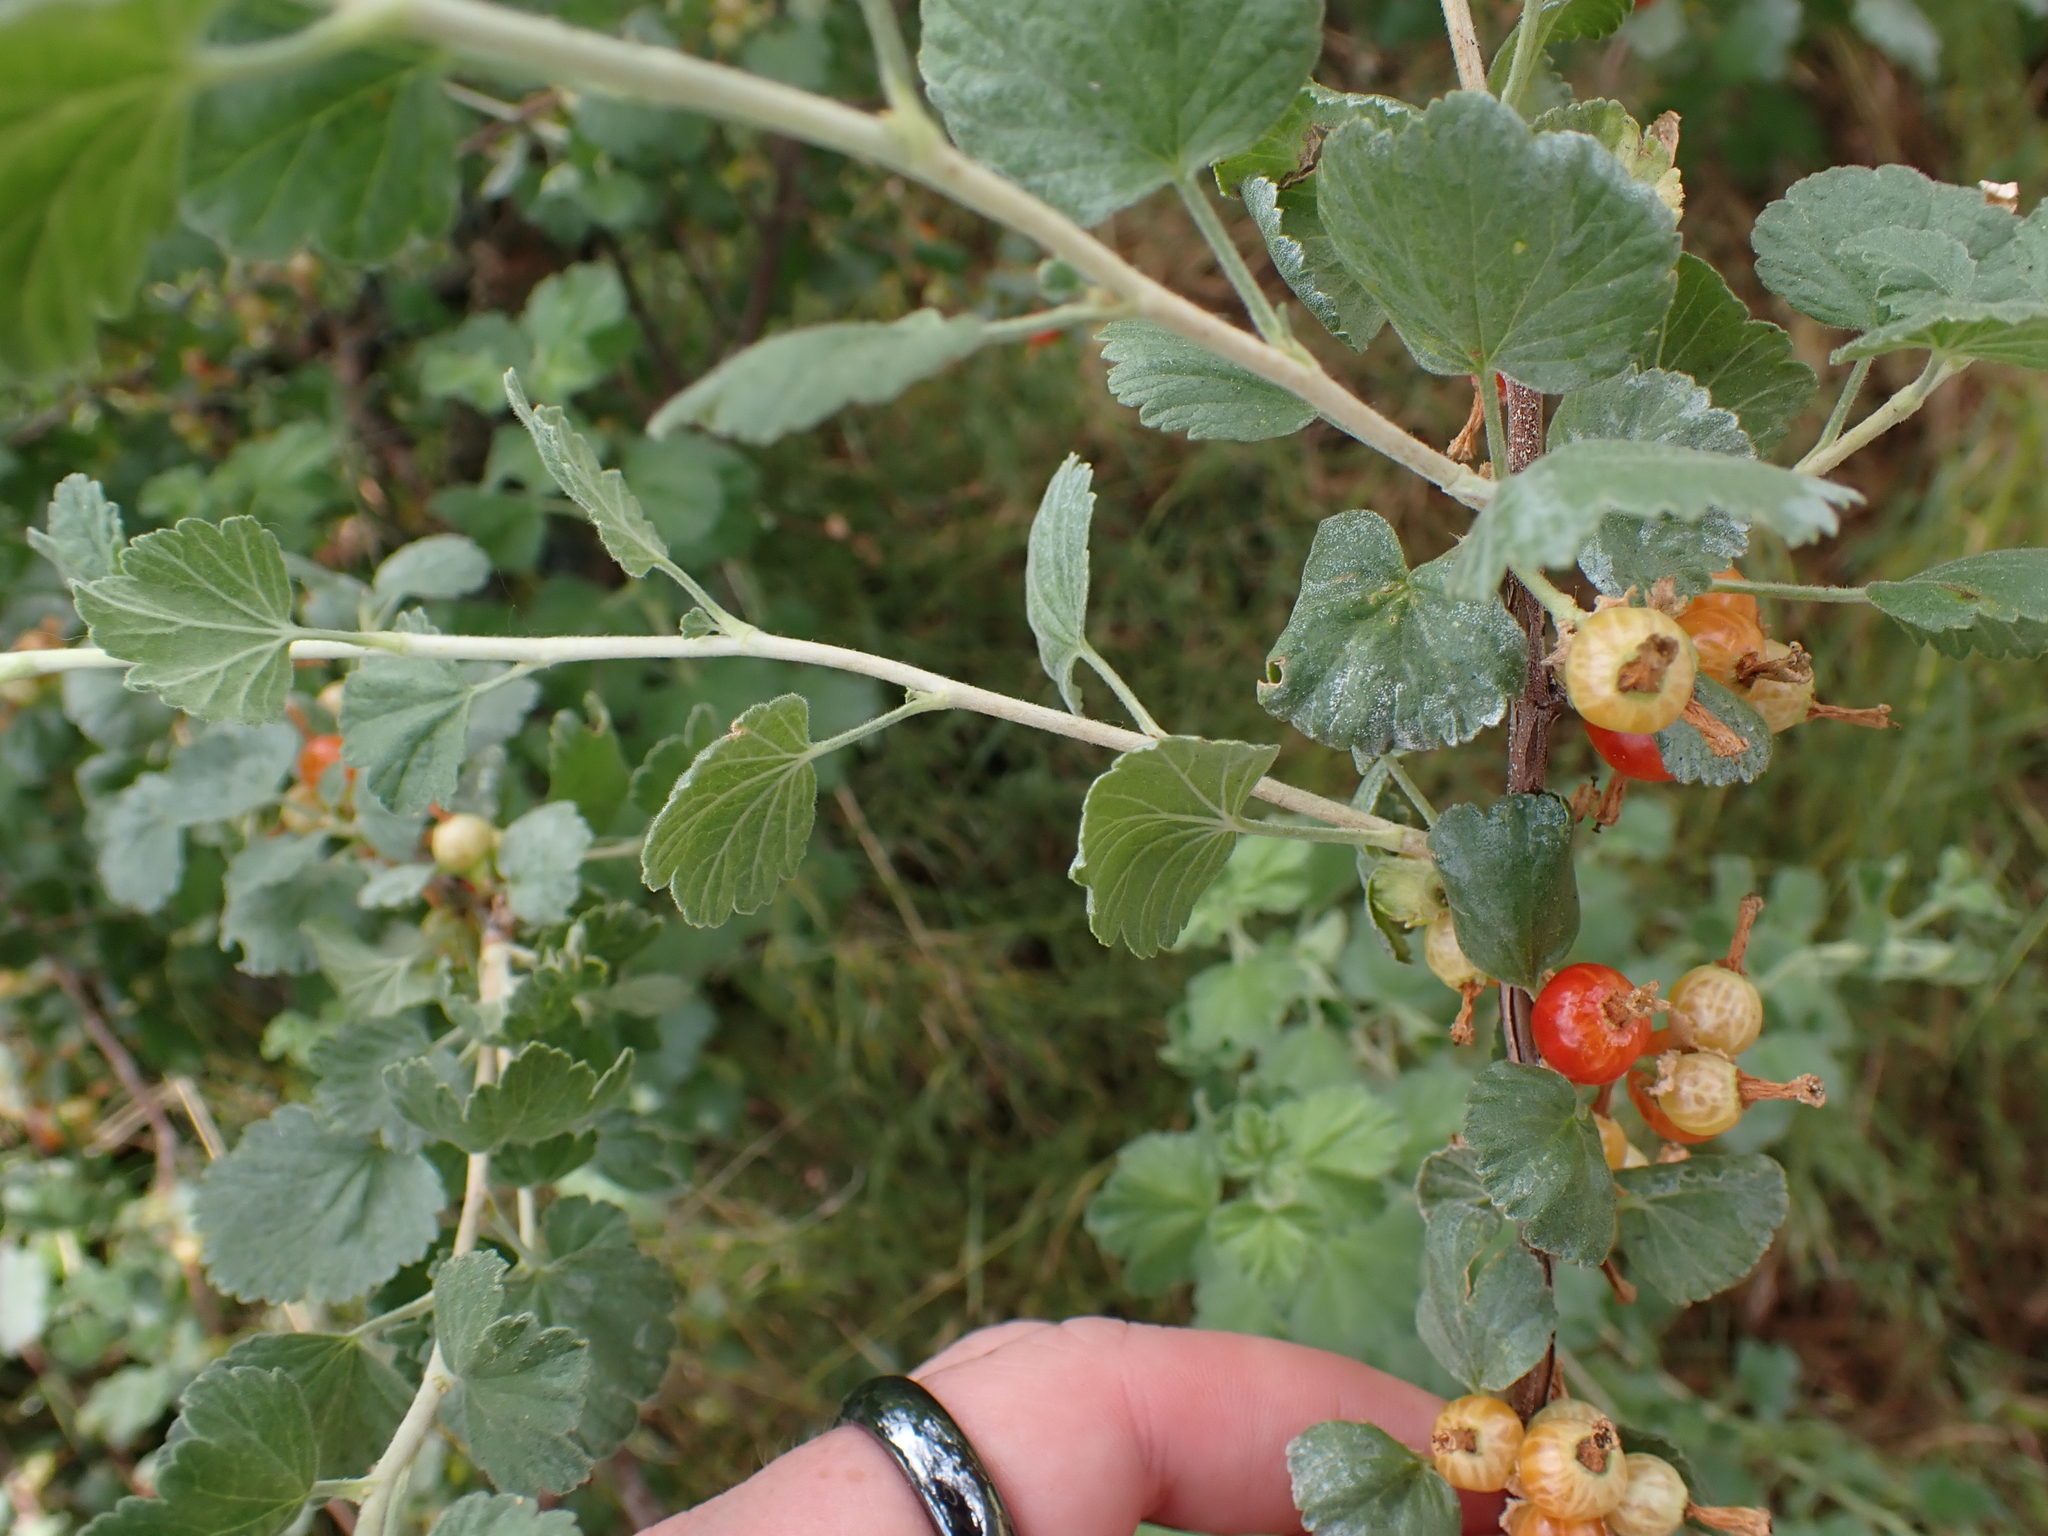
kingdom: Plantae
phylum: Tracheophyta
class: Magnoliopsida
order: Saxifragales
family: Grossulariaceae
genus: Ribes
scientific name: Ribes cereum
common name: Wax currant
